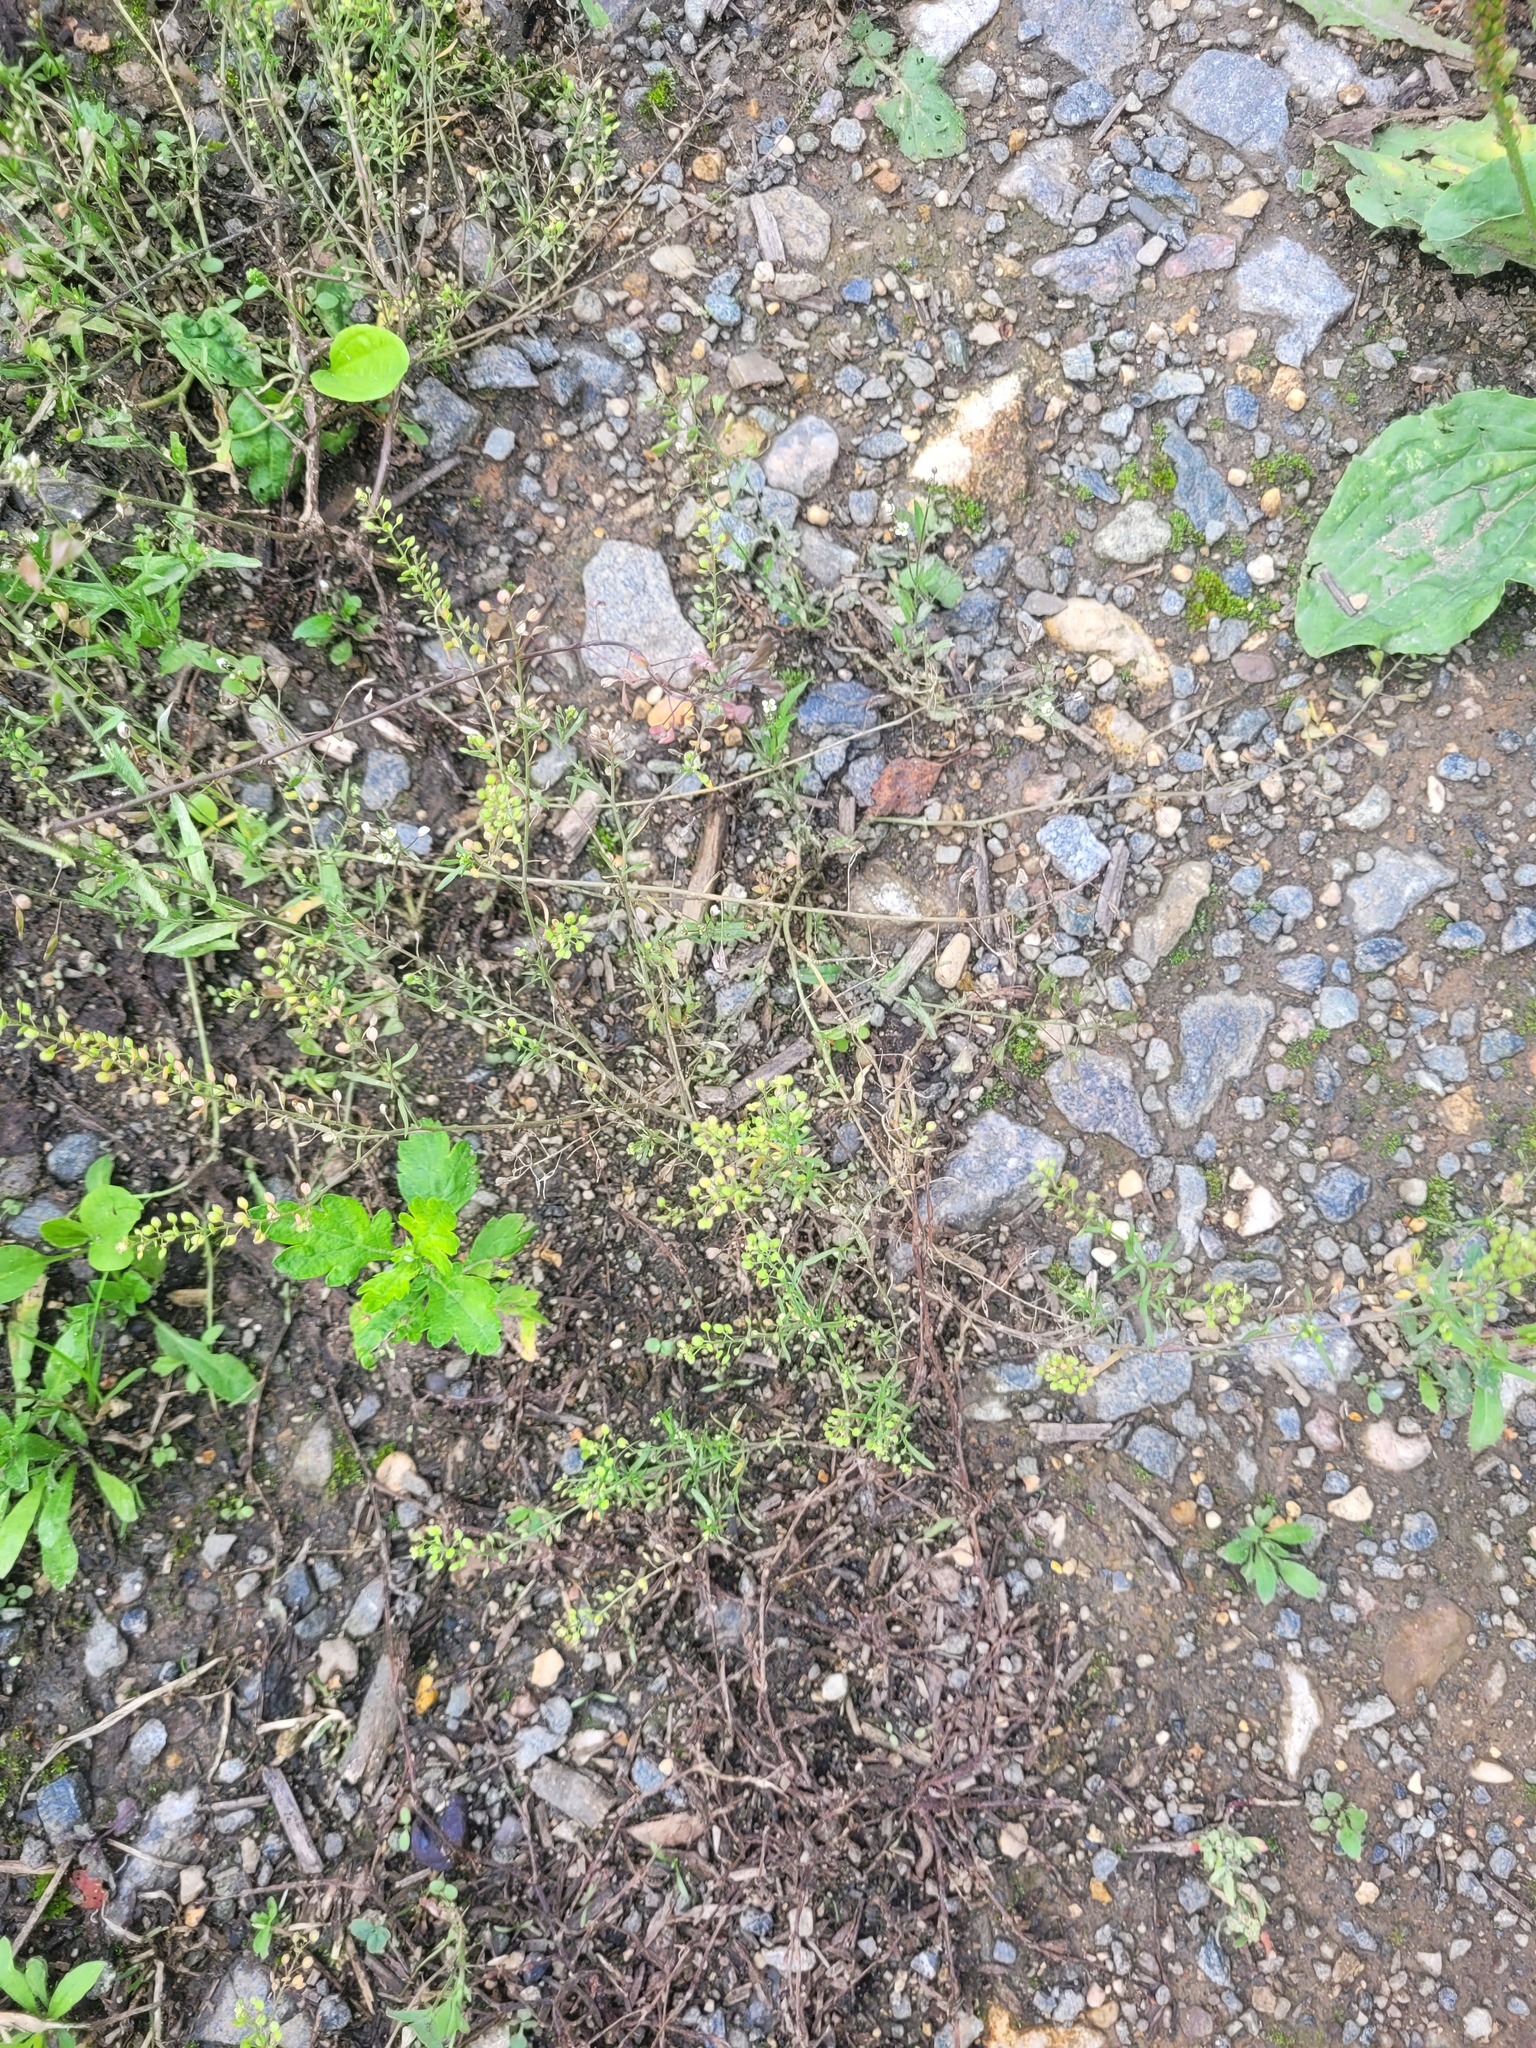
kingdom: Plantae
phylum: Tracheophyta
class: Magnoliopsida
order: Brassicales
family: Brassicaceae
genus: Lepidium
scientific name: Lepidium ruderale
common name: Narrow-leaved pepperwort
